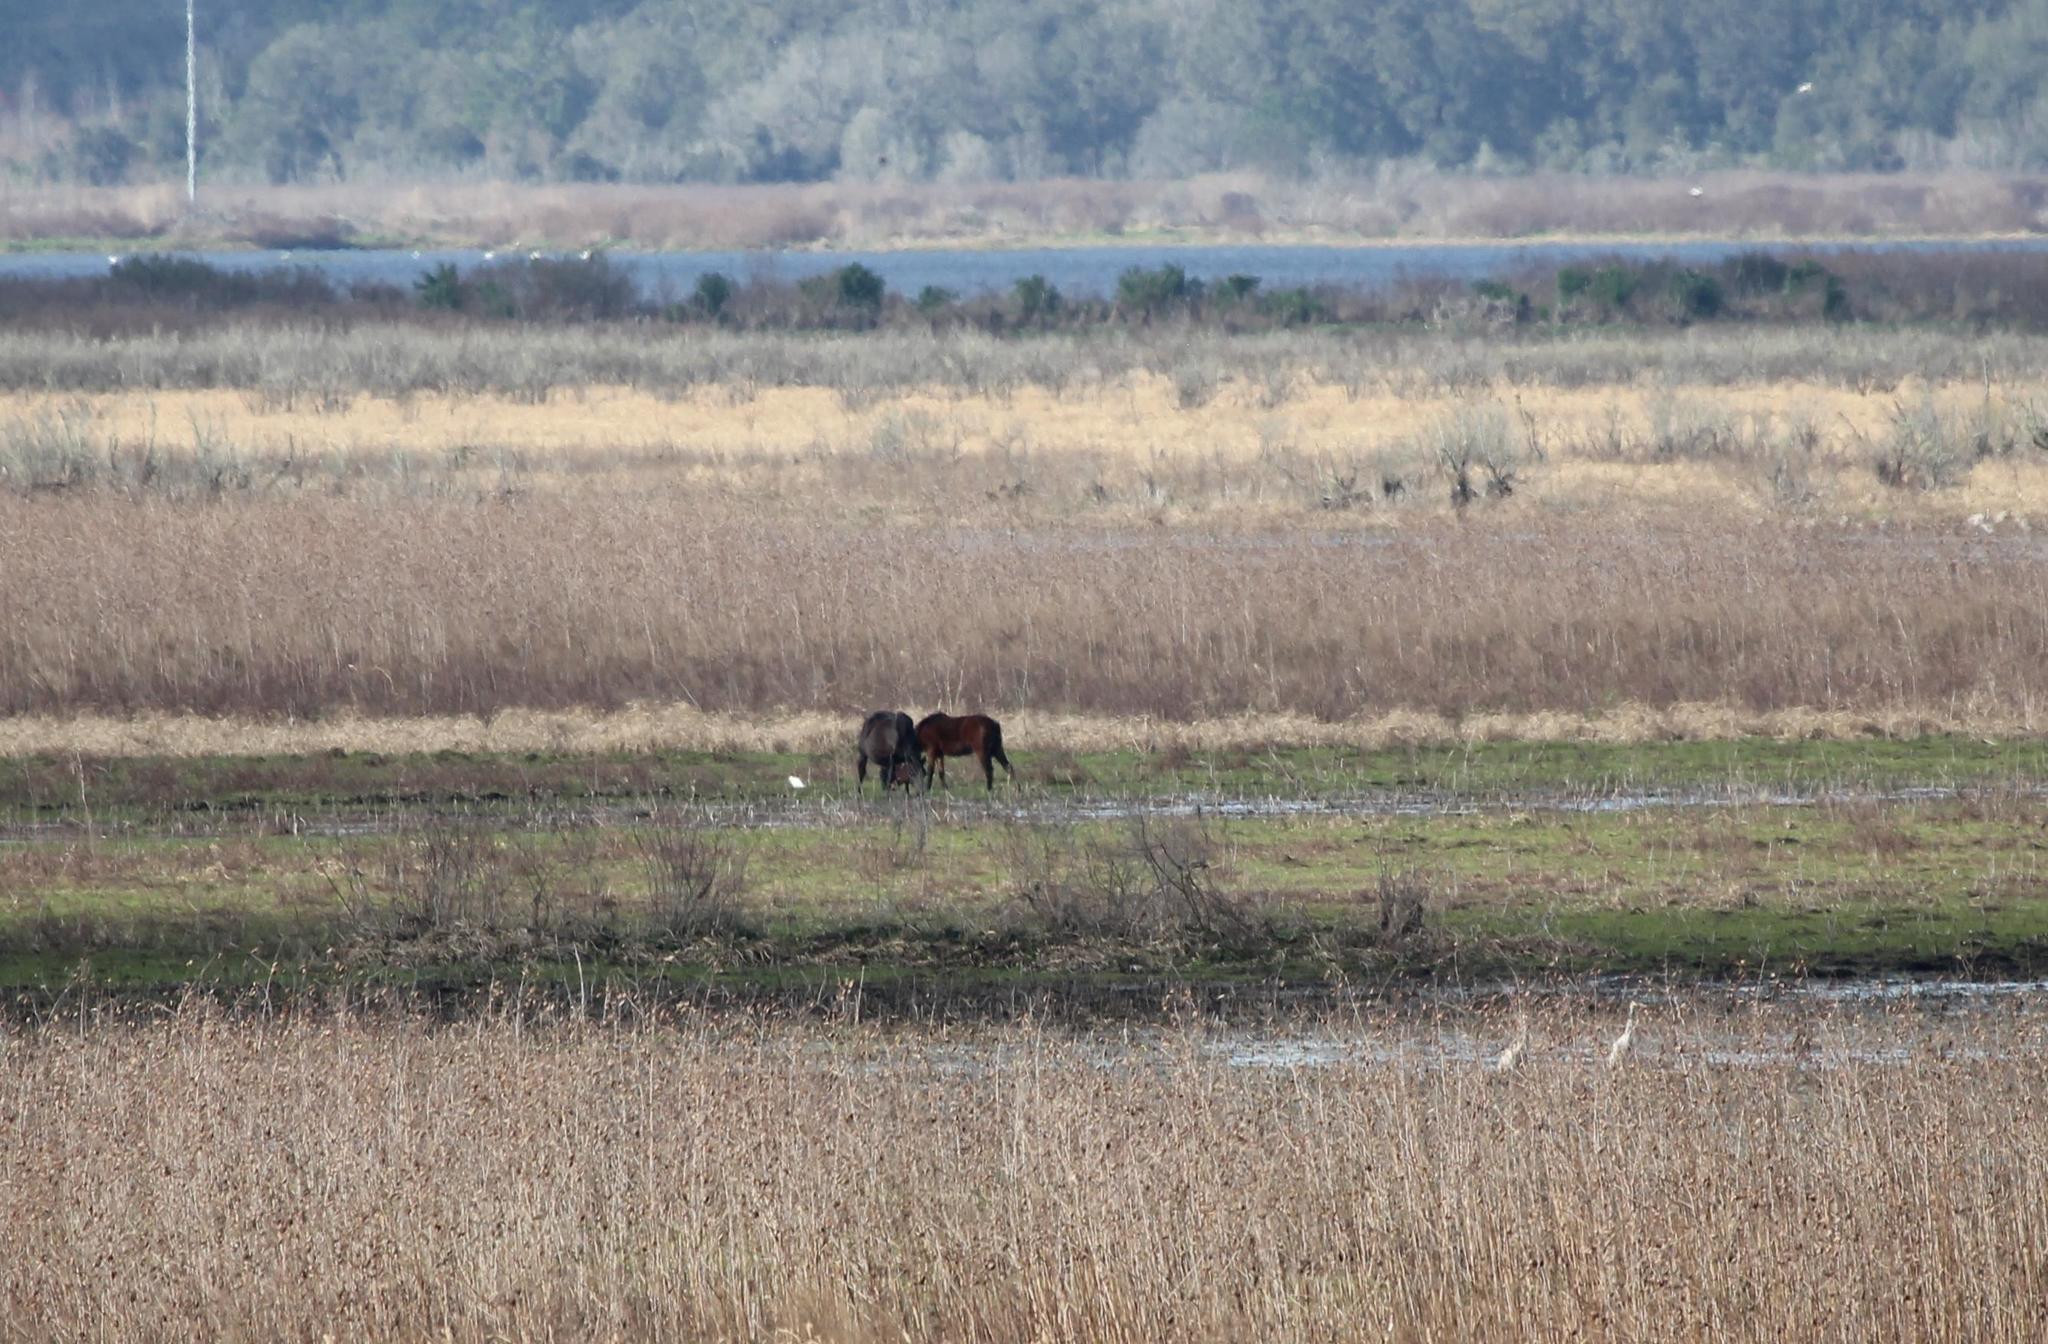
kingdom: Animalia
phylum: Chordata
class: Mammalia
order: Perissodactyla
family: Equidae
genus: Equus
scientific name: Equus caballus
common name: Horse
